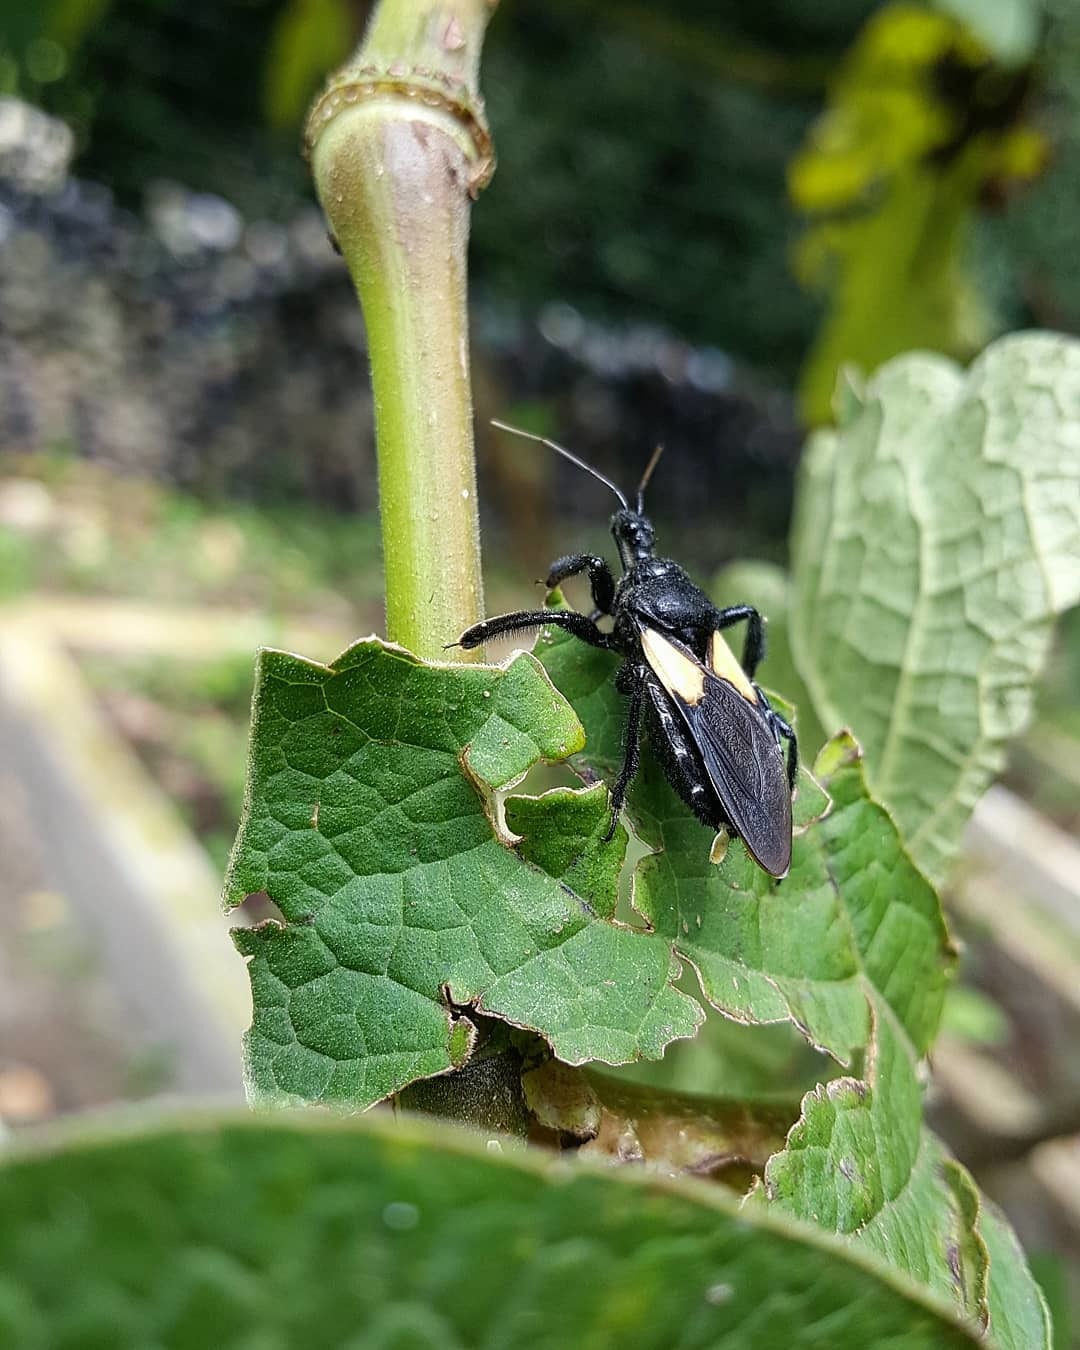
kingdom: Animalia
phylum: Arthropoda
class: Insecta
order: Hemiptera
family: Reduviidae
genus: Apiomerus
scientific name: Apiomerus elatus
